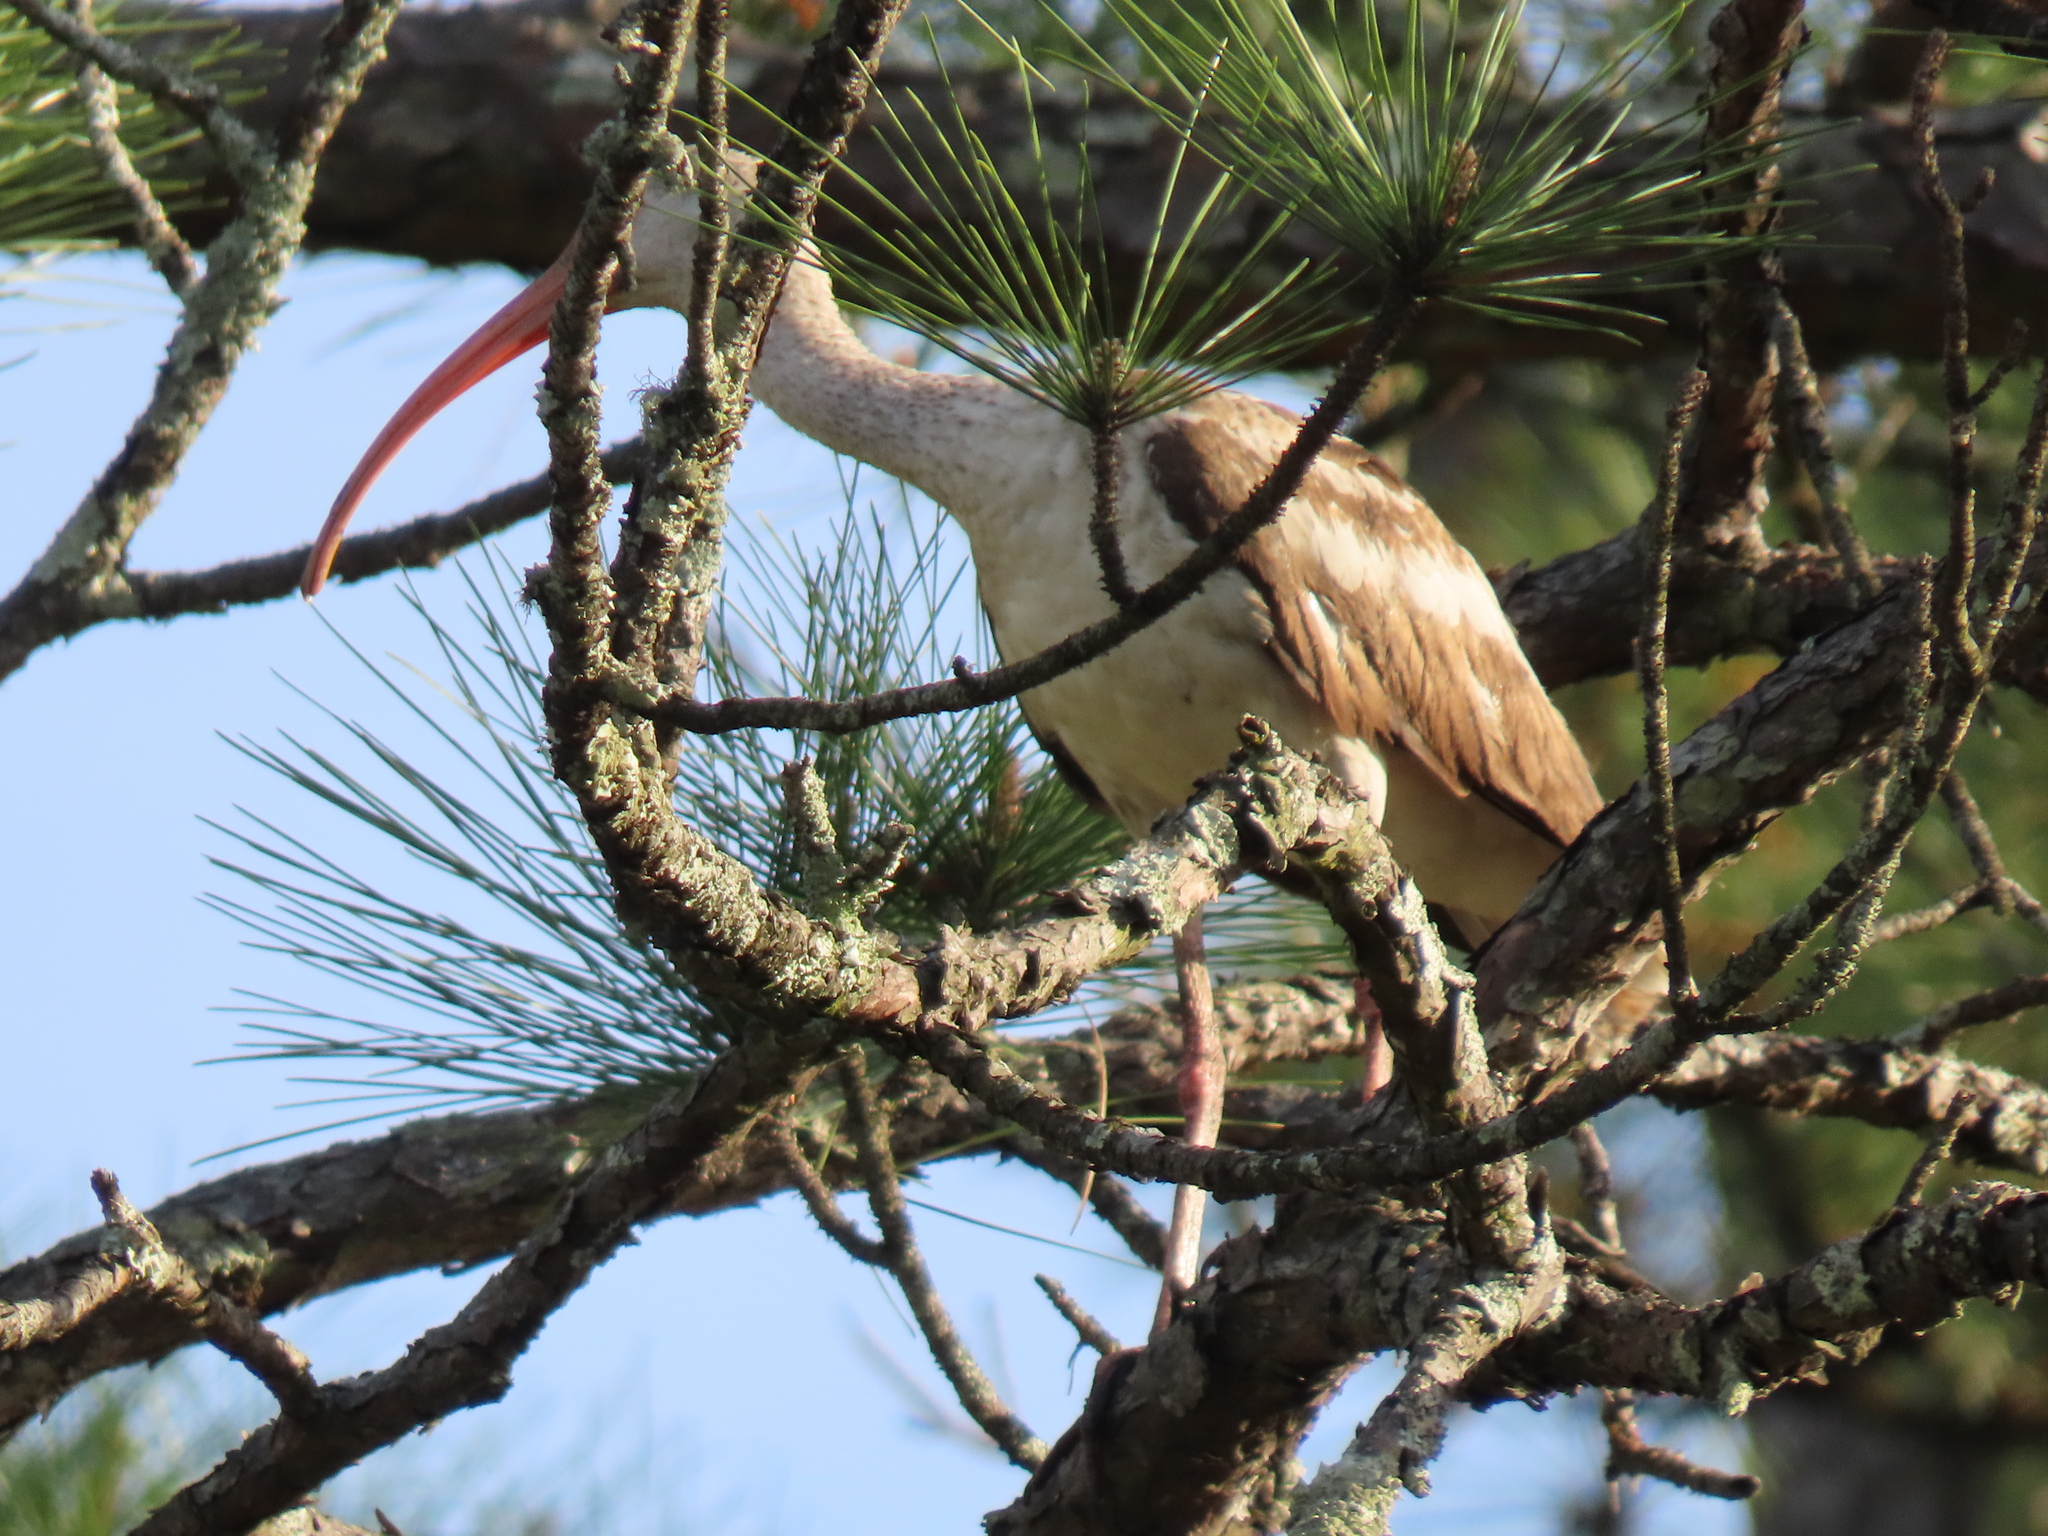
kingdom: Animalia
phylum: Chordata
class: Aves
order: Pelecaniformes
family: Threskiornithidae
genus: Eudocimus
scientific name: Eudocimus albus
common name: White ibis
